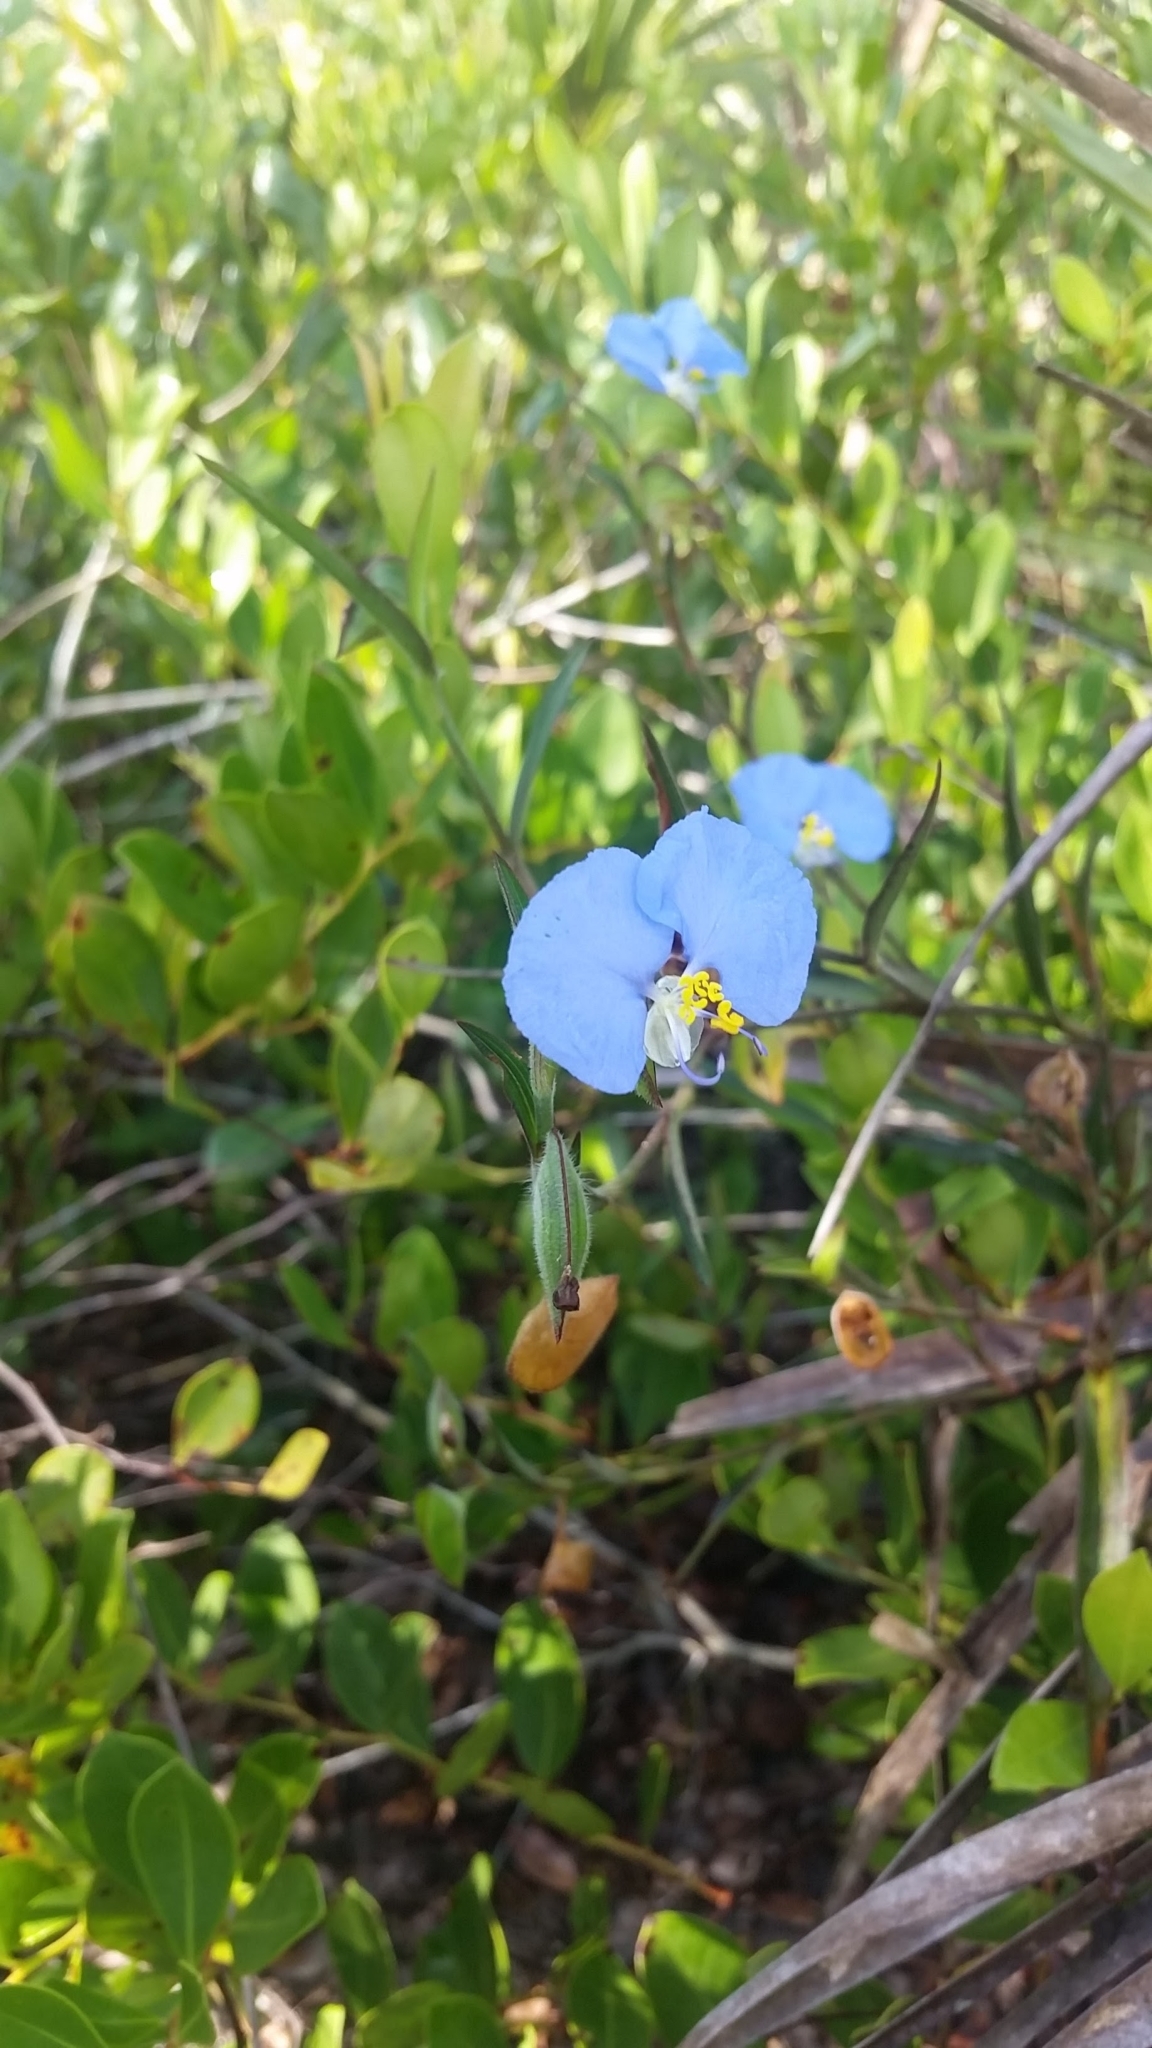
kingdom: Plantae
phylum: Tracheophyta
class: Liliopsida
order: Commelinales
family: Commelinaceae
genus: Commelina
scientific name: Commelina erecta
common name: Blousel blommetjie
